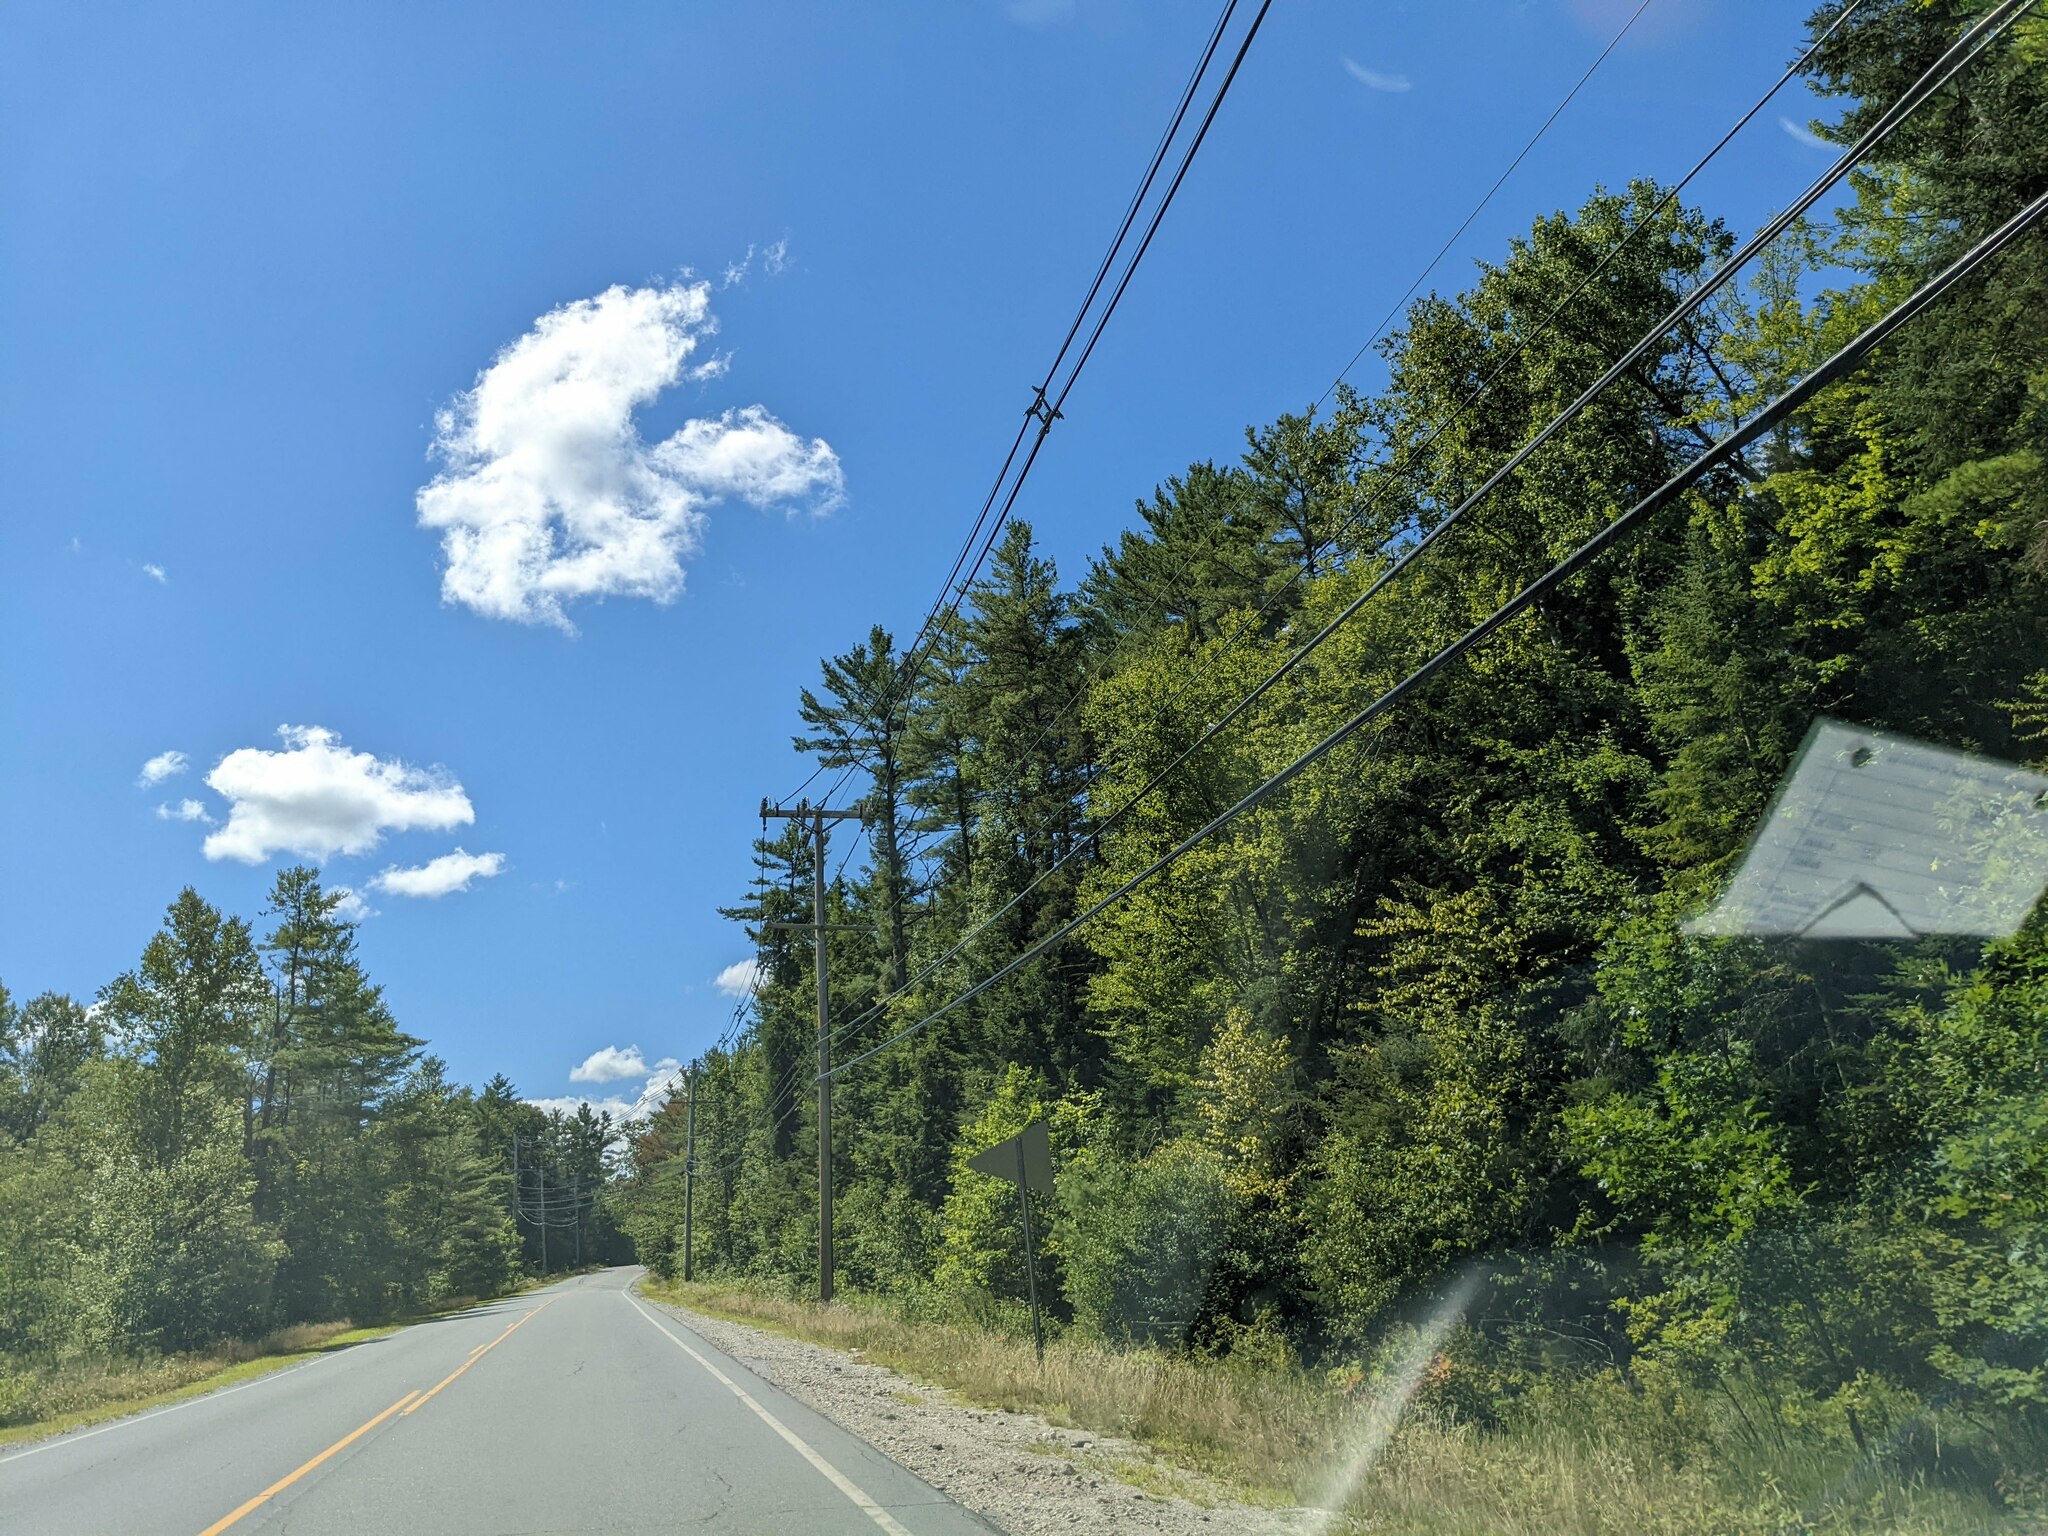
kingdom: Plantae
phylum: Tracheophyta
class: Pinopsida
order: Pinales
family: Pinaceae
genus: Pinus
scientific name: Pinus strobus
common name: Weymouth pine
